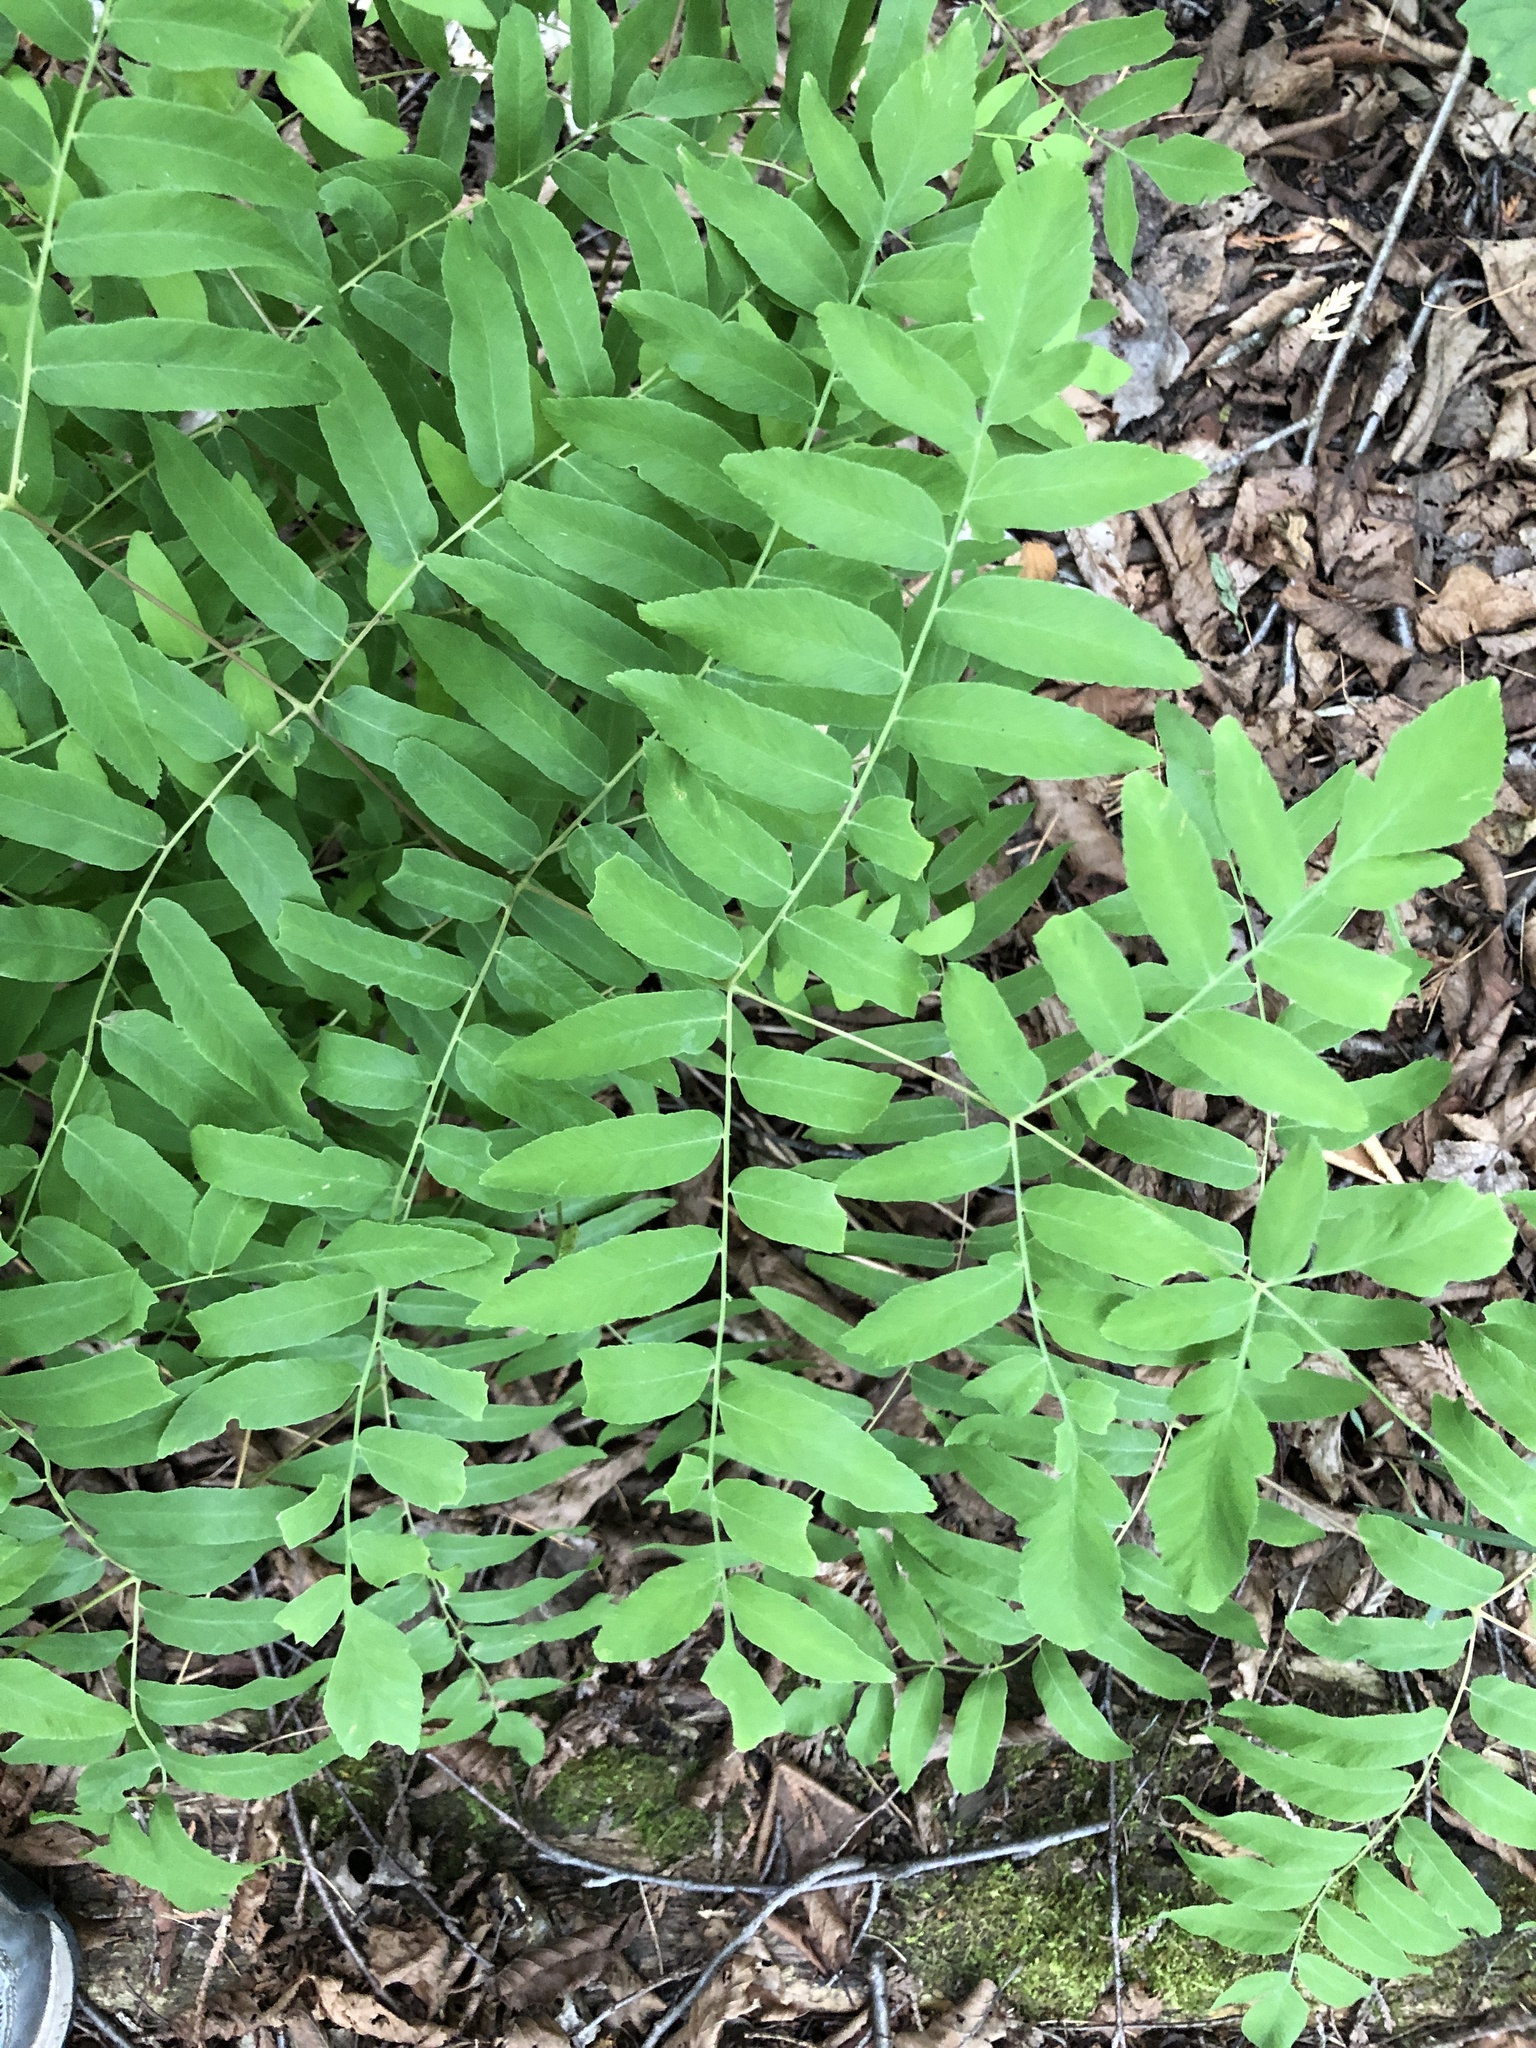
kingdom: Plantae
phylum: Tracheophyta
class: Polypodiopsida
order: Osmundales
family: Osmundaceae
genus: Osmunda
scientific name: Osmunda spectabilis
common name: American royal fern
